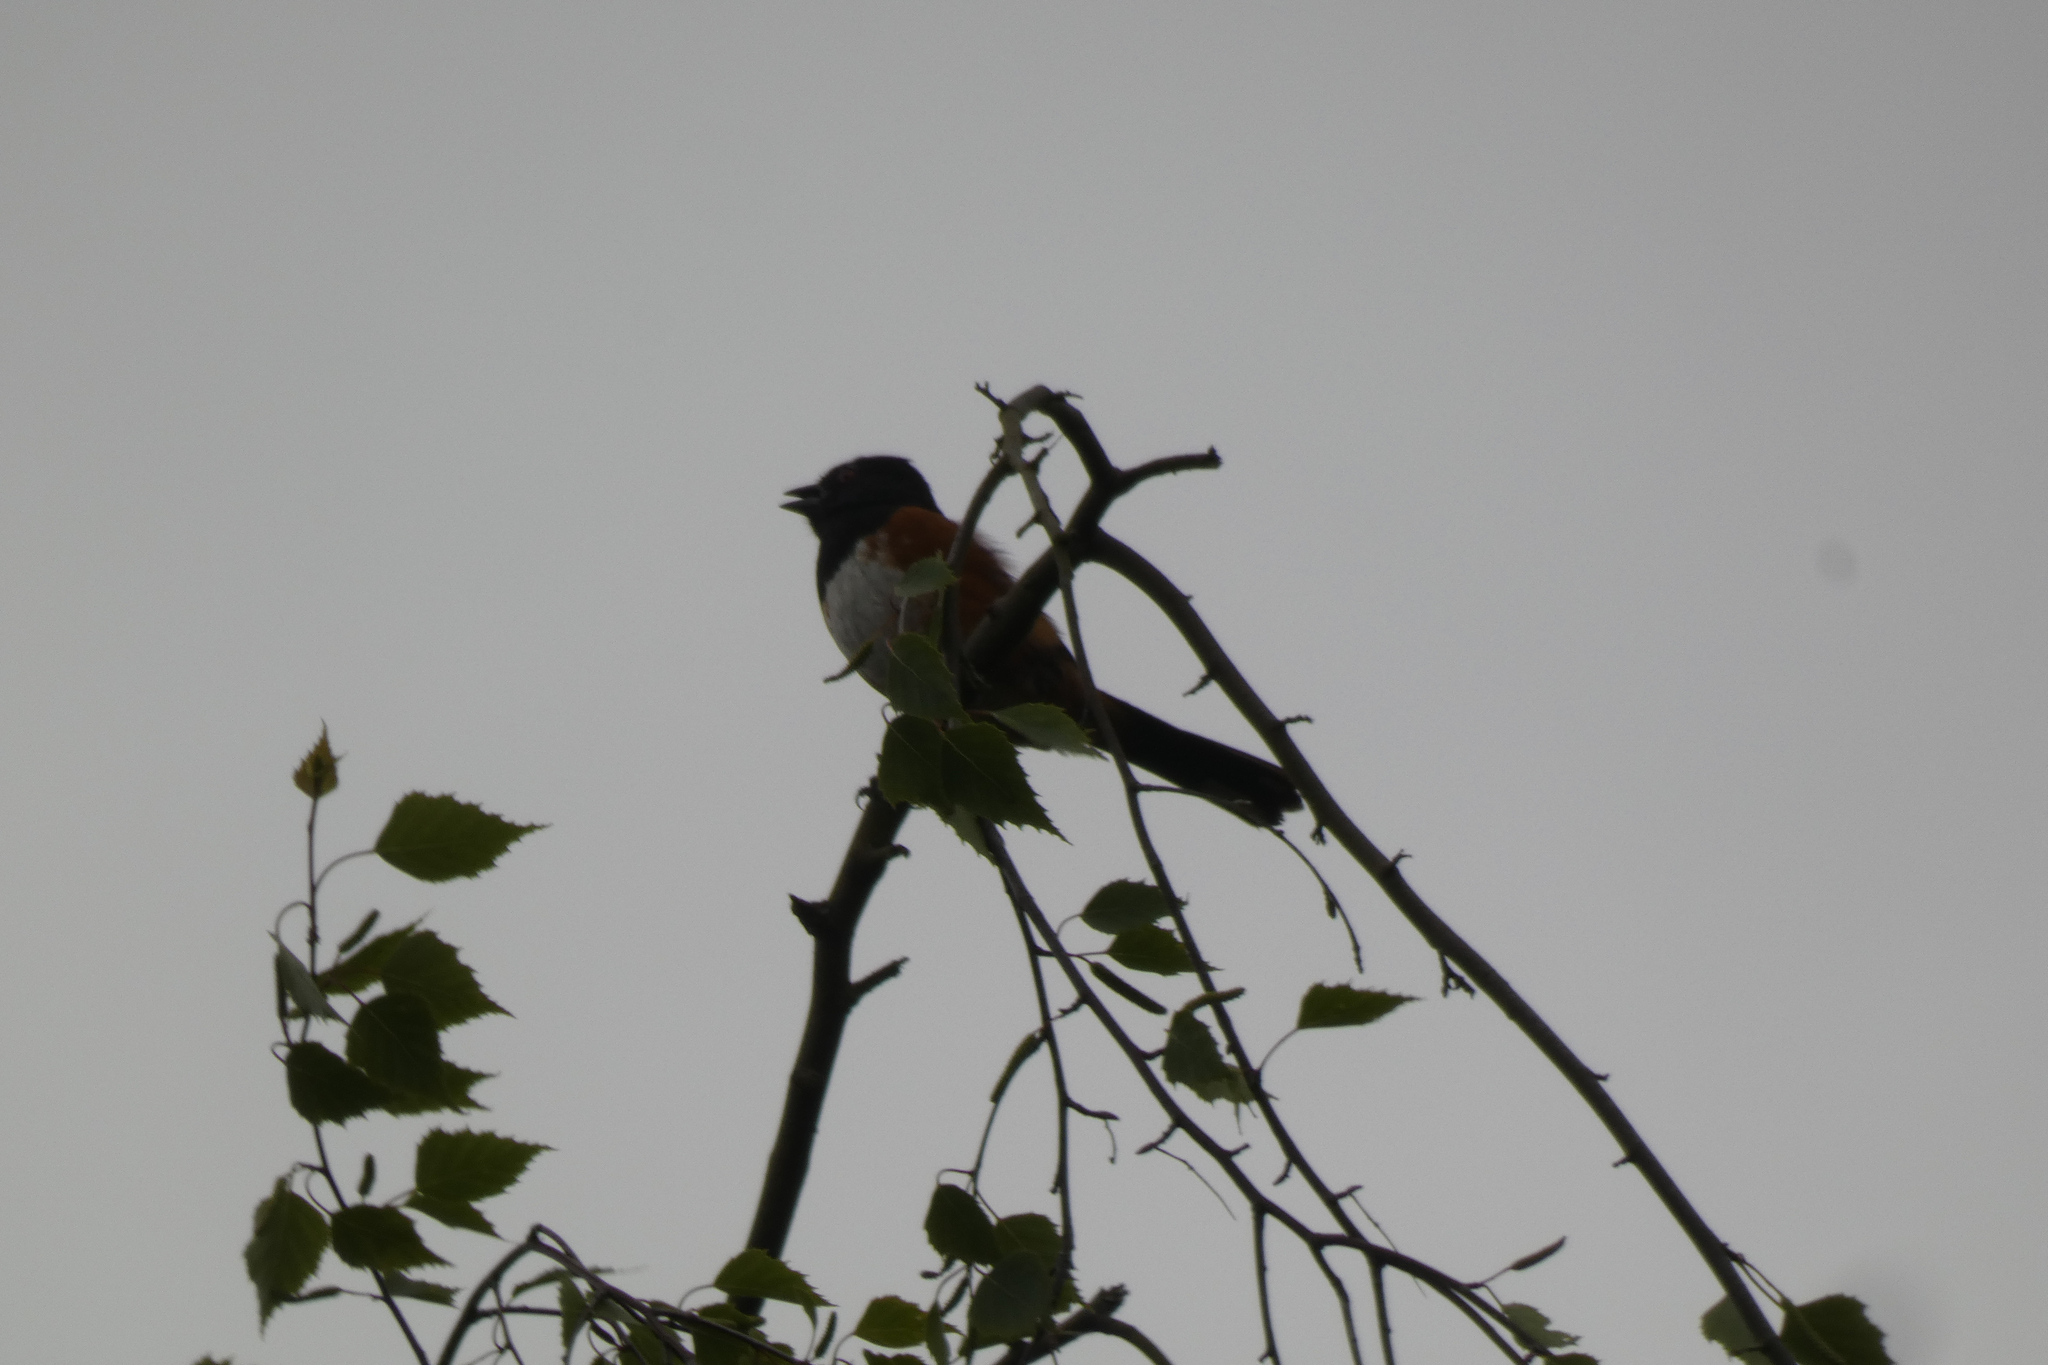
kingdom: Animalia
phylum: Chordata
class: Aves
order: Passeriformes
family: Passerellidae
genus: Pipilo
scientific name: Pipilo maculatus
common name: Spotted towhee
